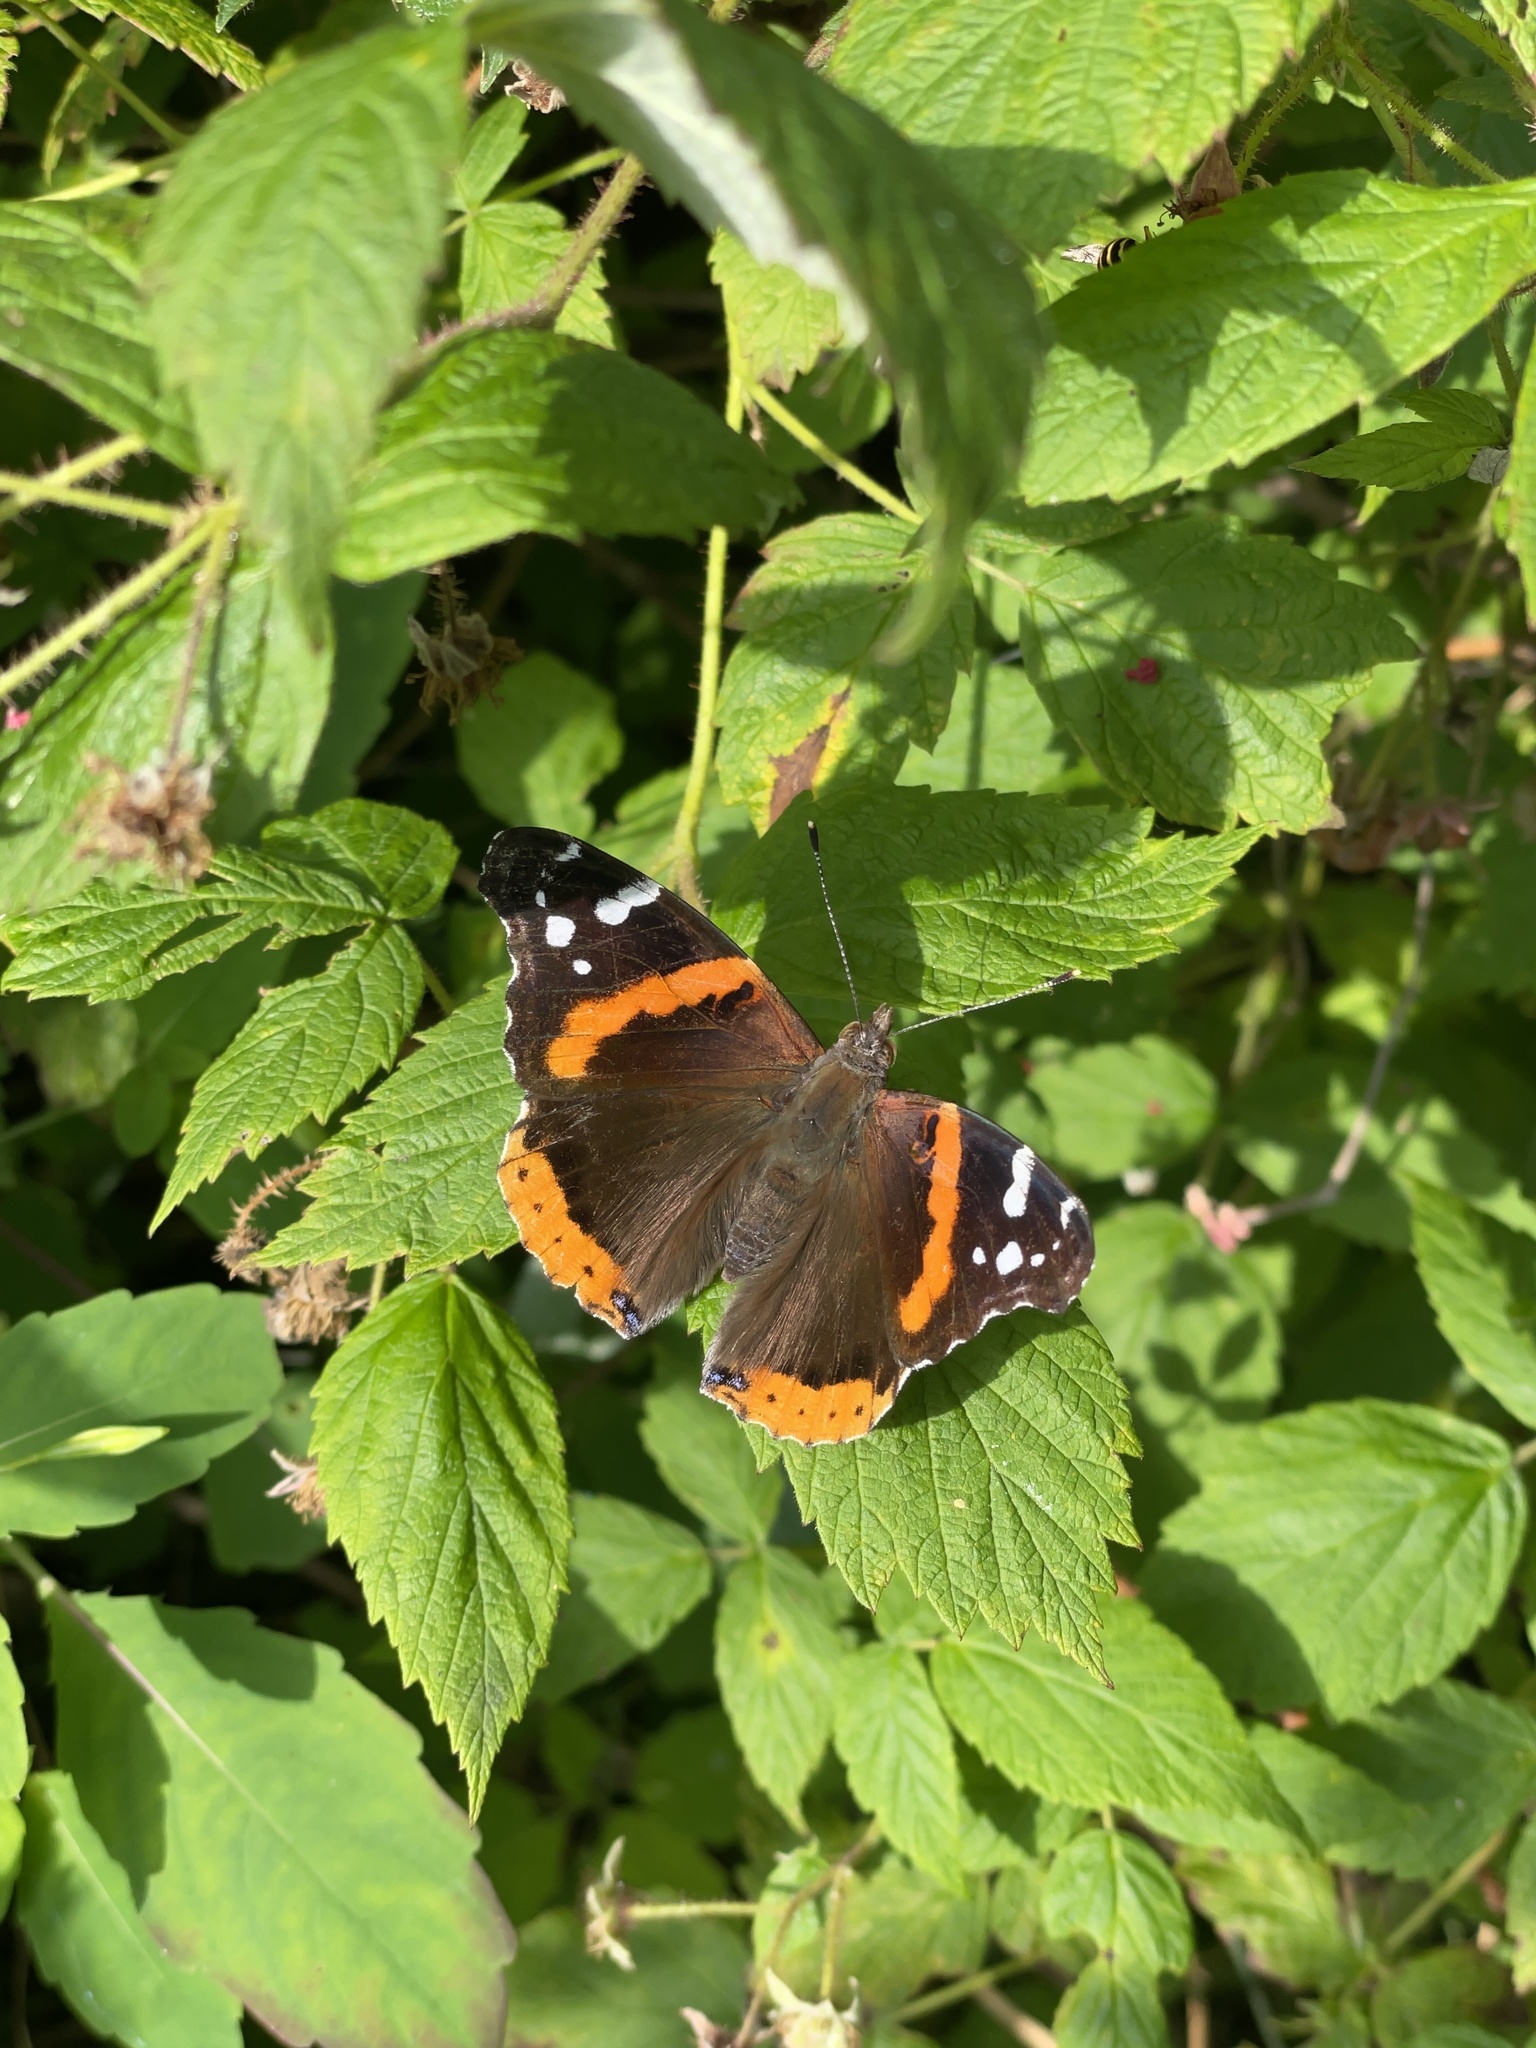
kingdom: Animalia
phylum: Arthropoda
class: Insecta
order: Lepidoptera
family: Nymphalidae
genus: Vanessa
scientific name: Vanessa atalanta
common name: Red admiral
